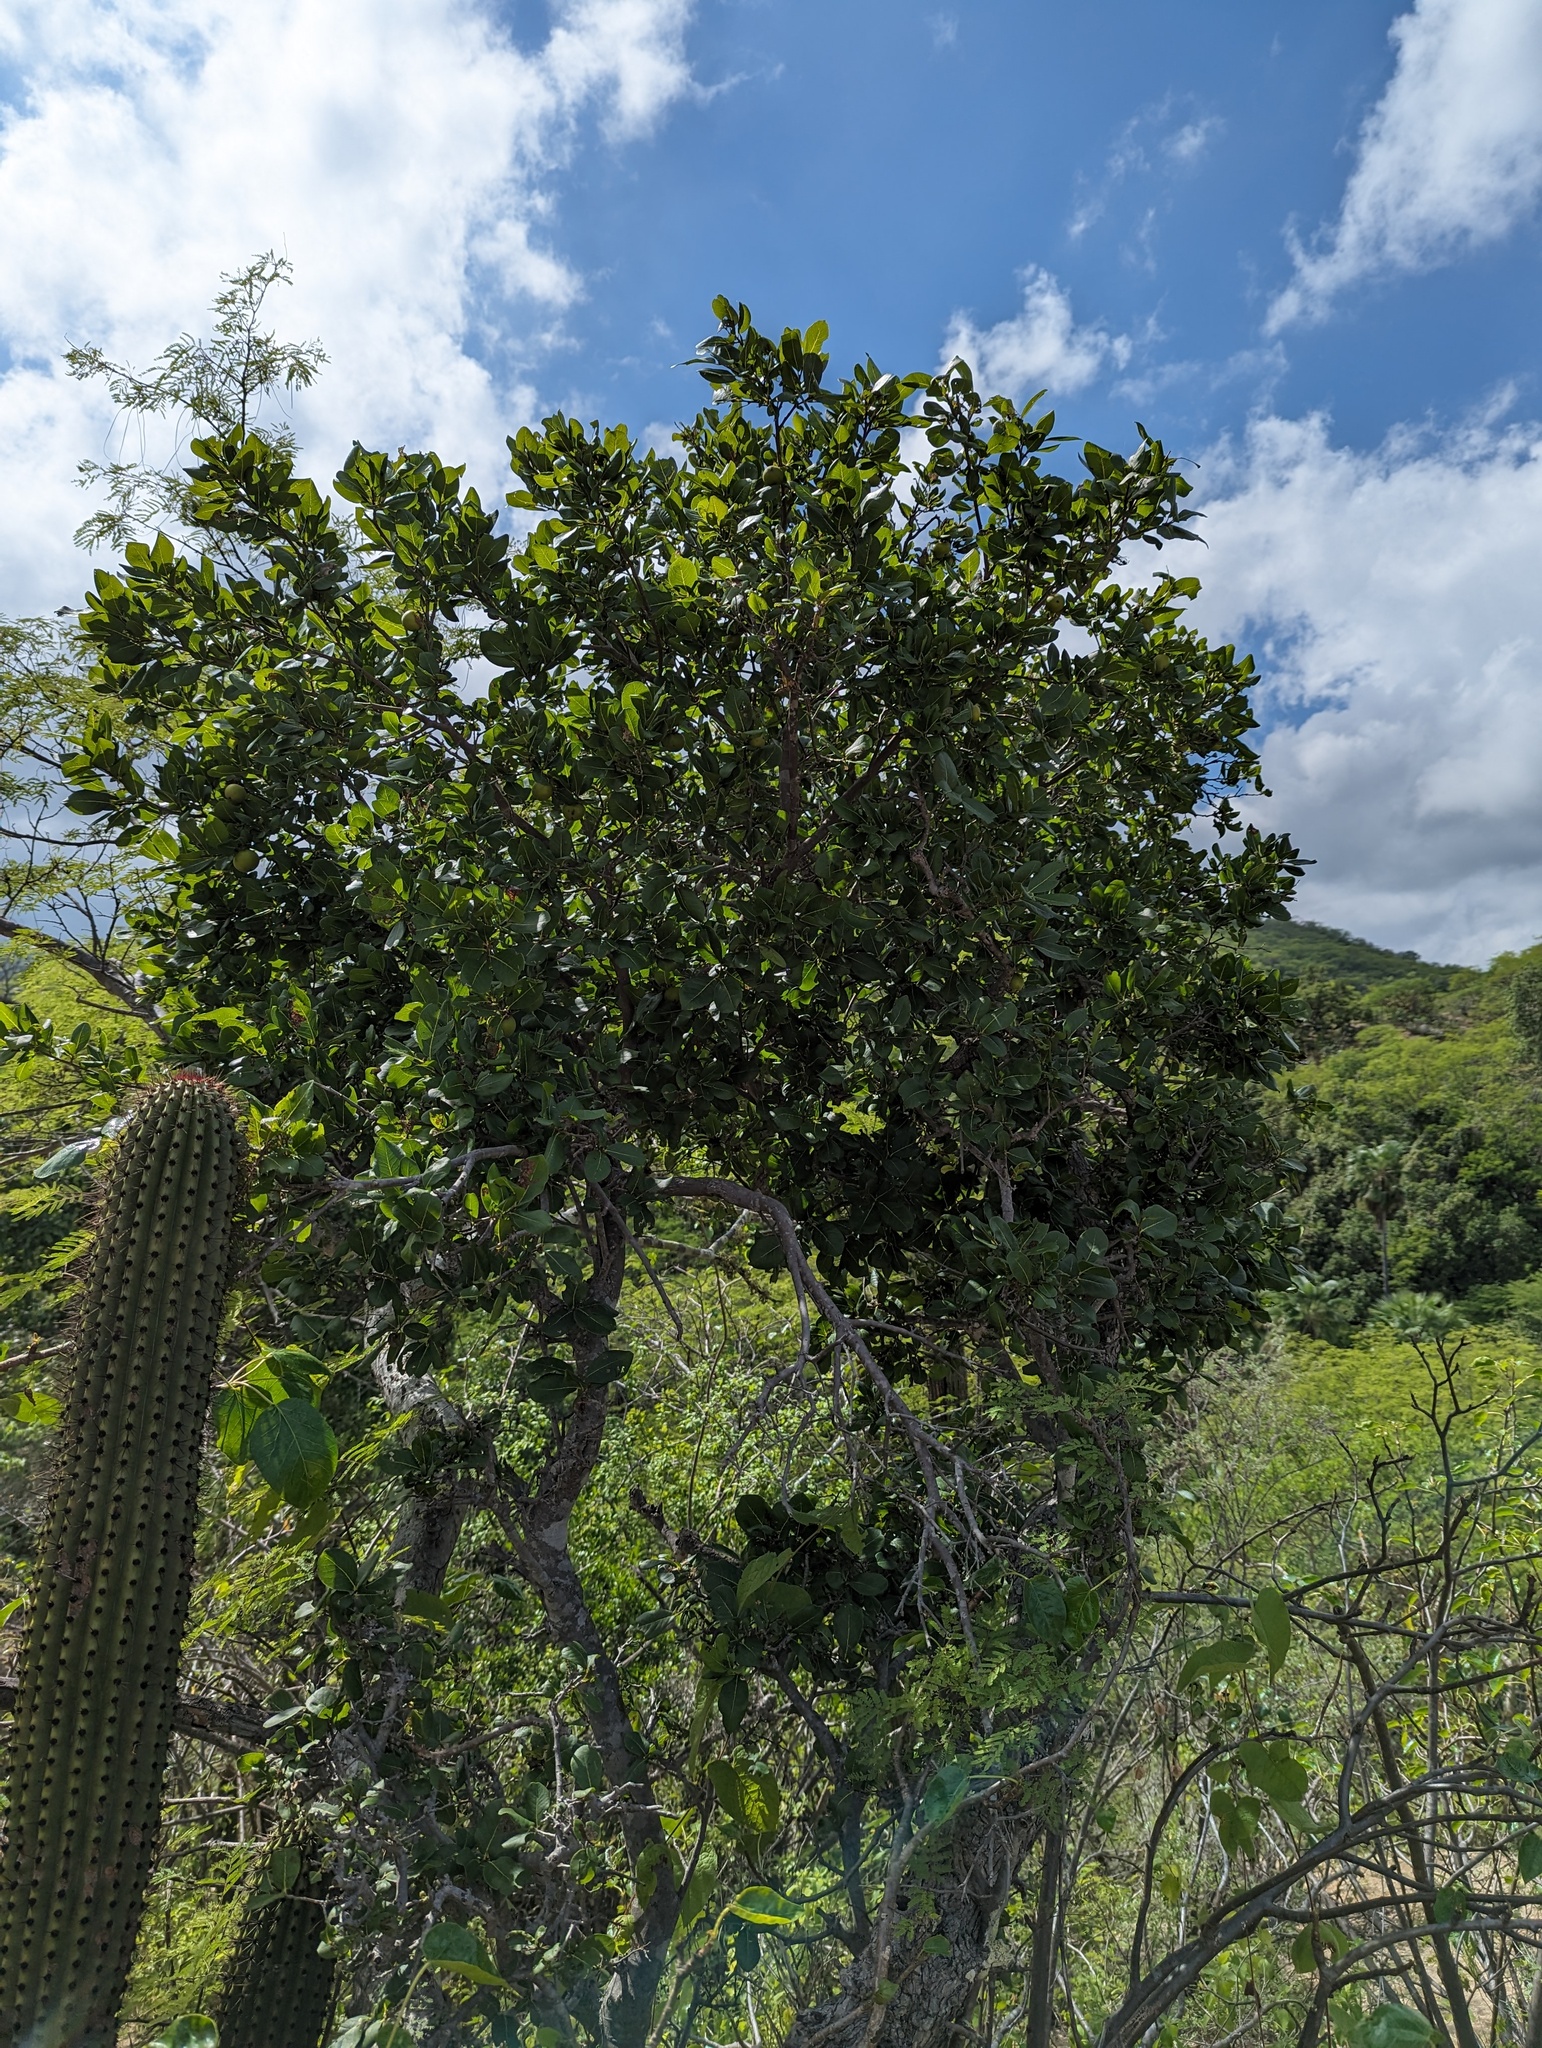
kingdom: Plantae
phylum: Tracheophyta
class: Magnoliopsida
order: Ericales
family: Ebenaceae
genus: Diospyros
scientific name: Diospyros californica
